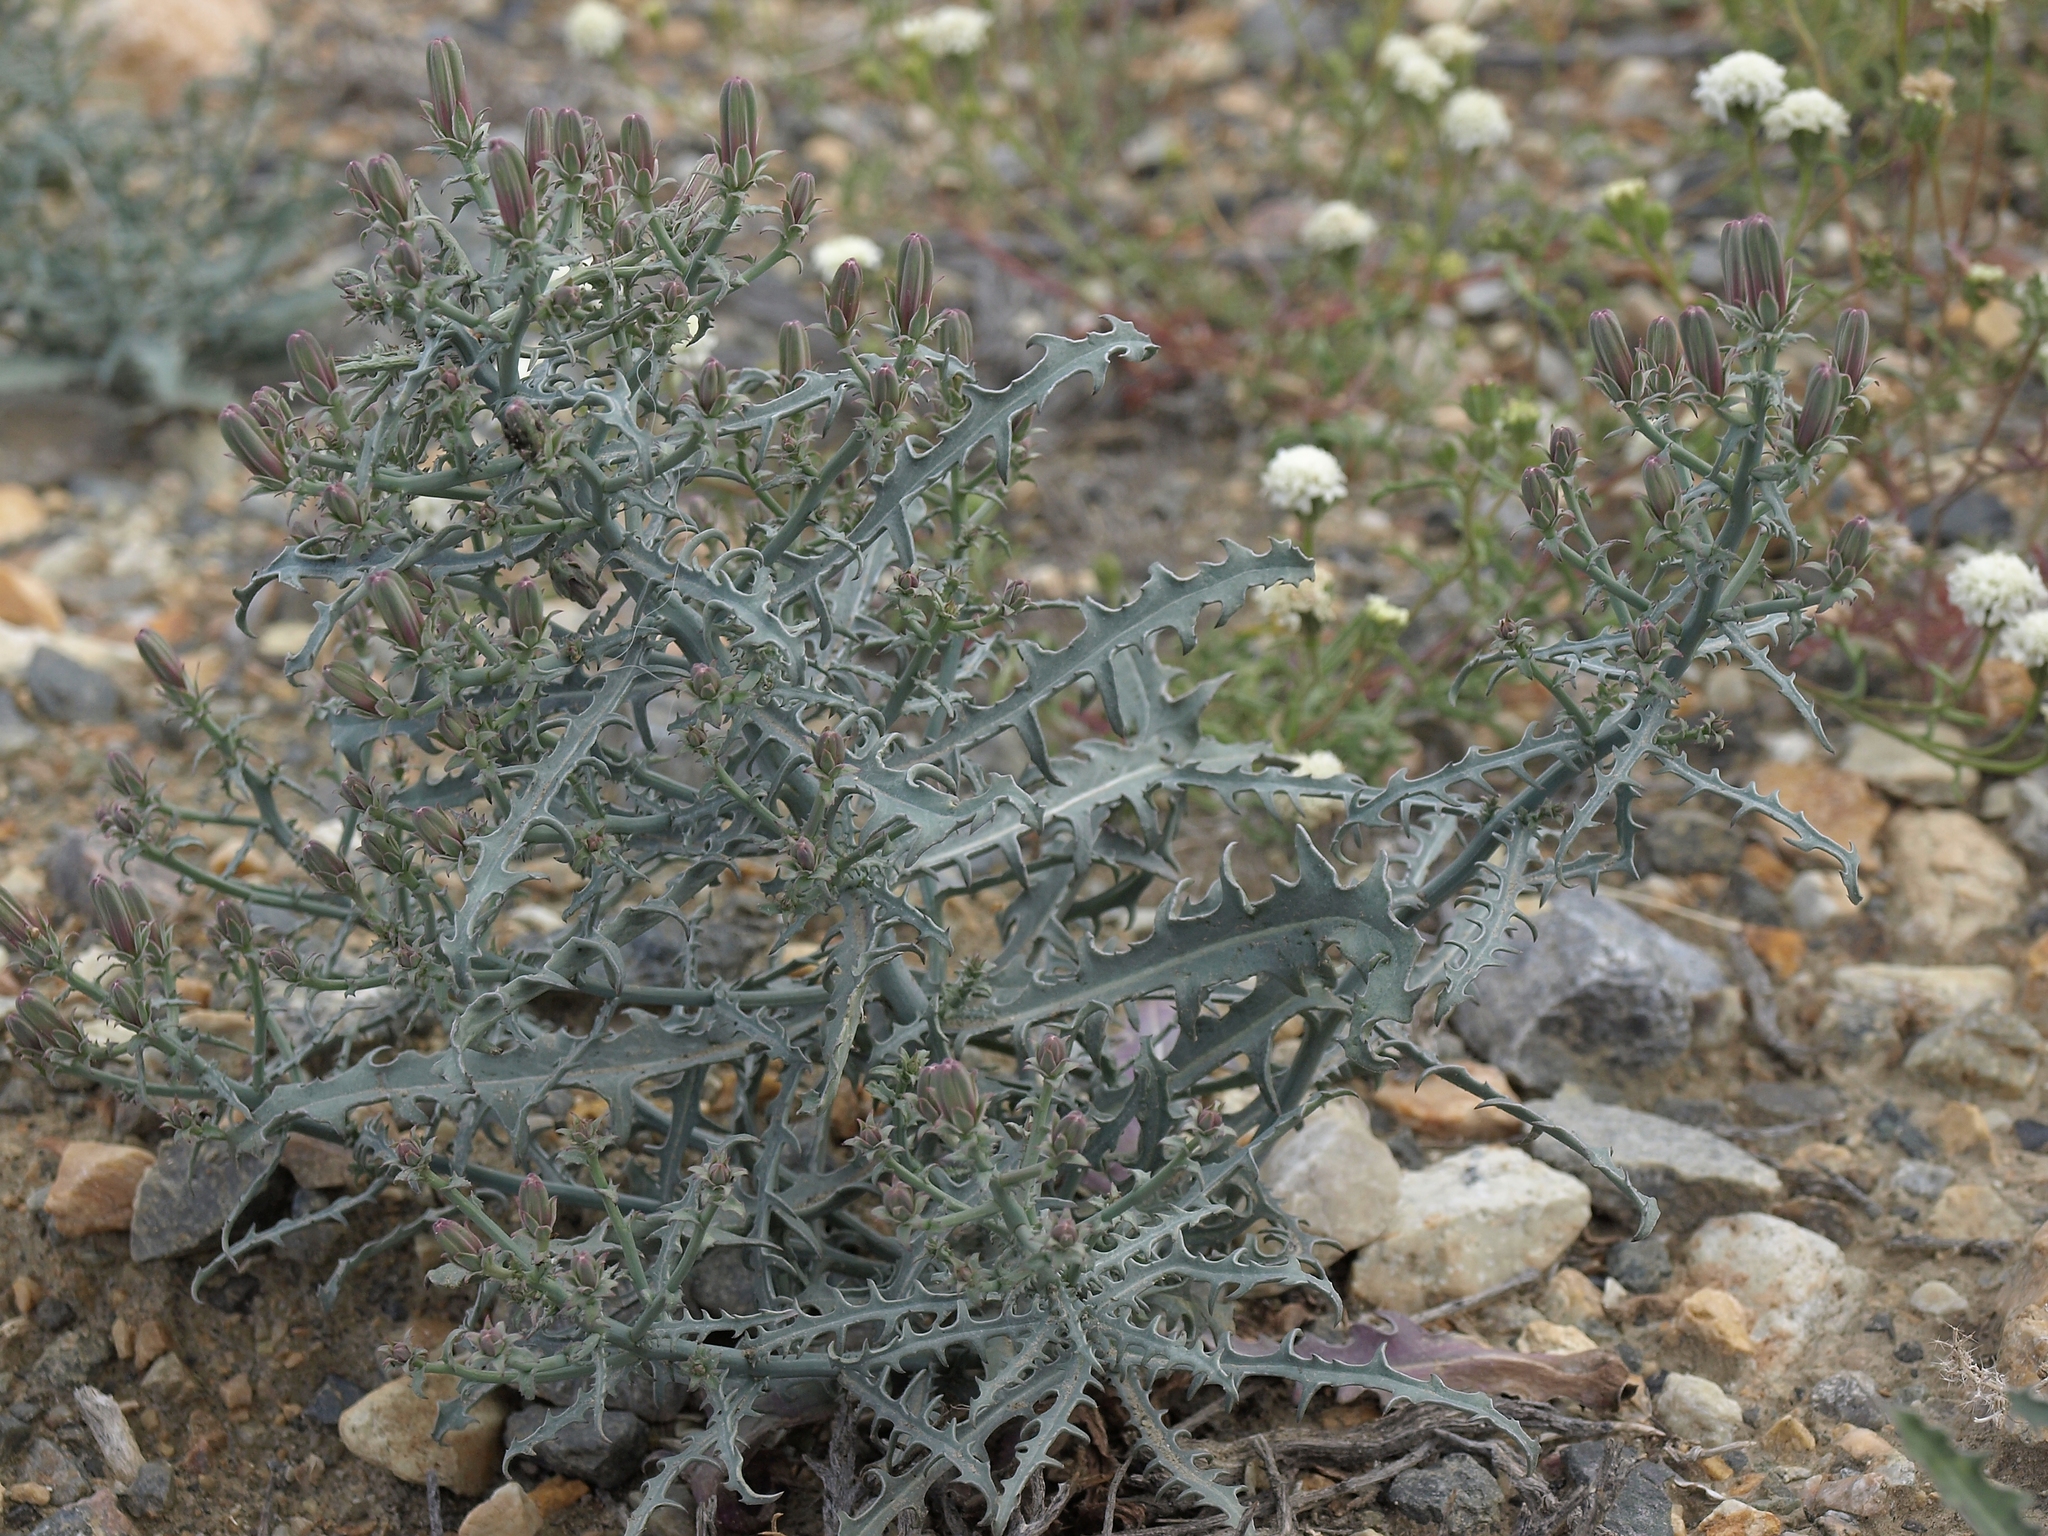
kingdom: Plantae
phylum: Tracheophyta
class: Magnoliopsida
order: Asterales
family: Asteraceae
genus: Stephanomeria
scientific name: Stephanomeria parryi
